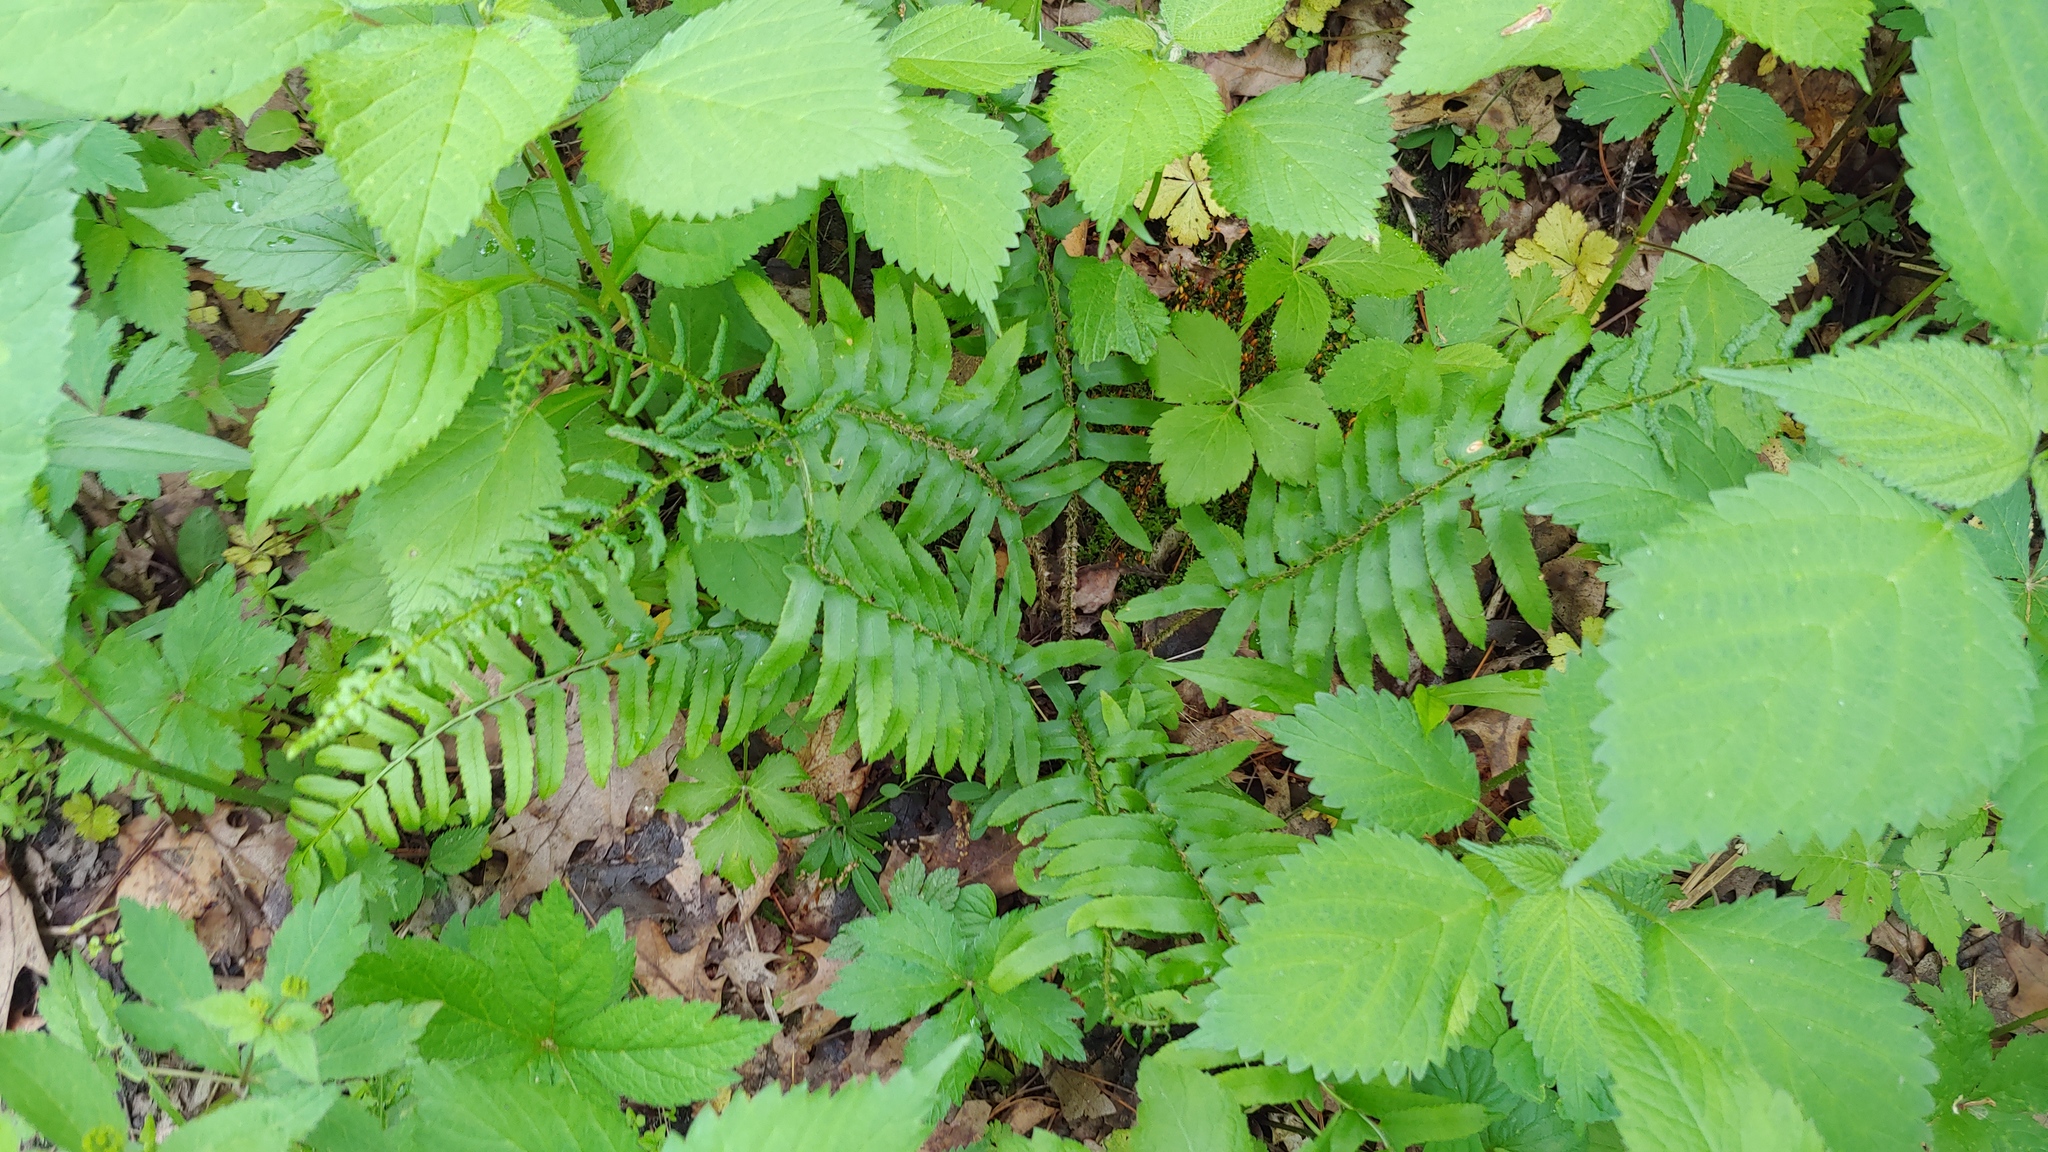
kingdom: Plantae
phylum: Tracheophyta
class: Polypodiopsida
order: Polypodiales
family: Dryopteridaceae
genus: Polystichum
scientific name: Polystichum acrostichoides
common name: Christmas fern
